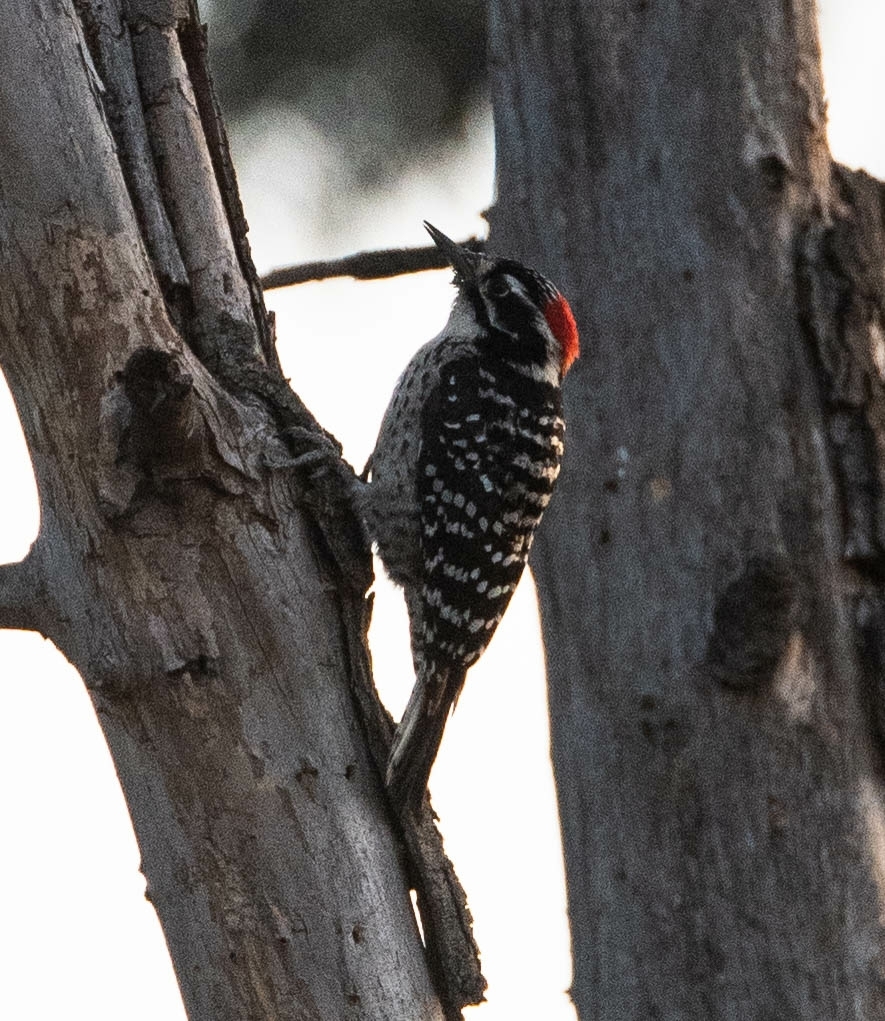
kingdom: Animalia
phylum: Chordata
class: Aves
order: Piciformes
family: Picidae
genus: Dryobates
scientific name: Dryobates nuttallii
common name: Nuttall's woodpecker
